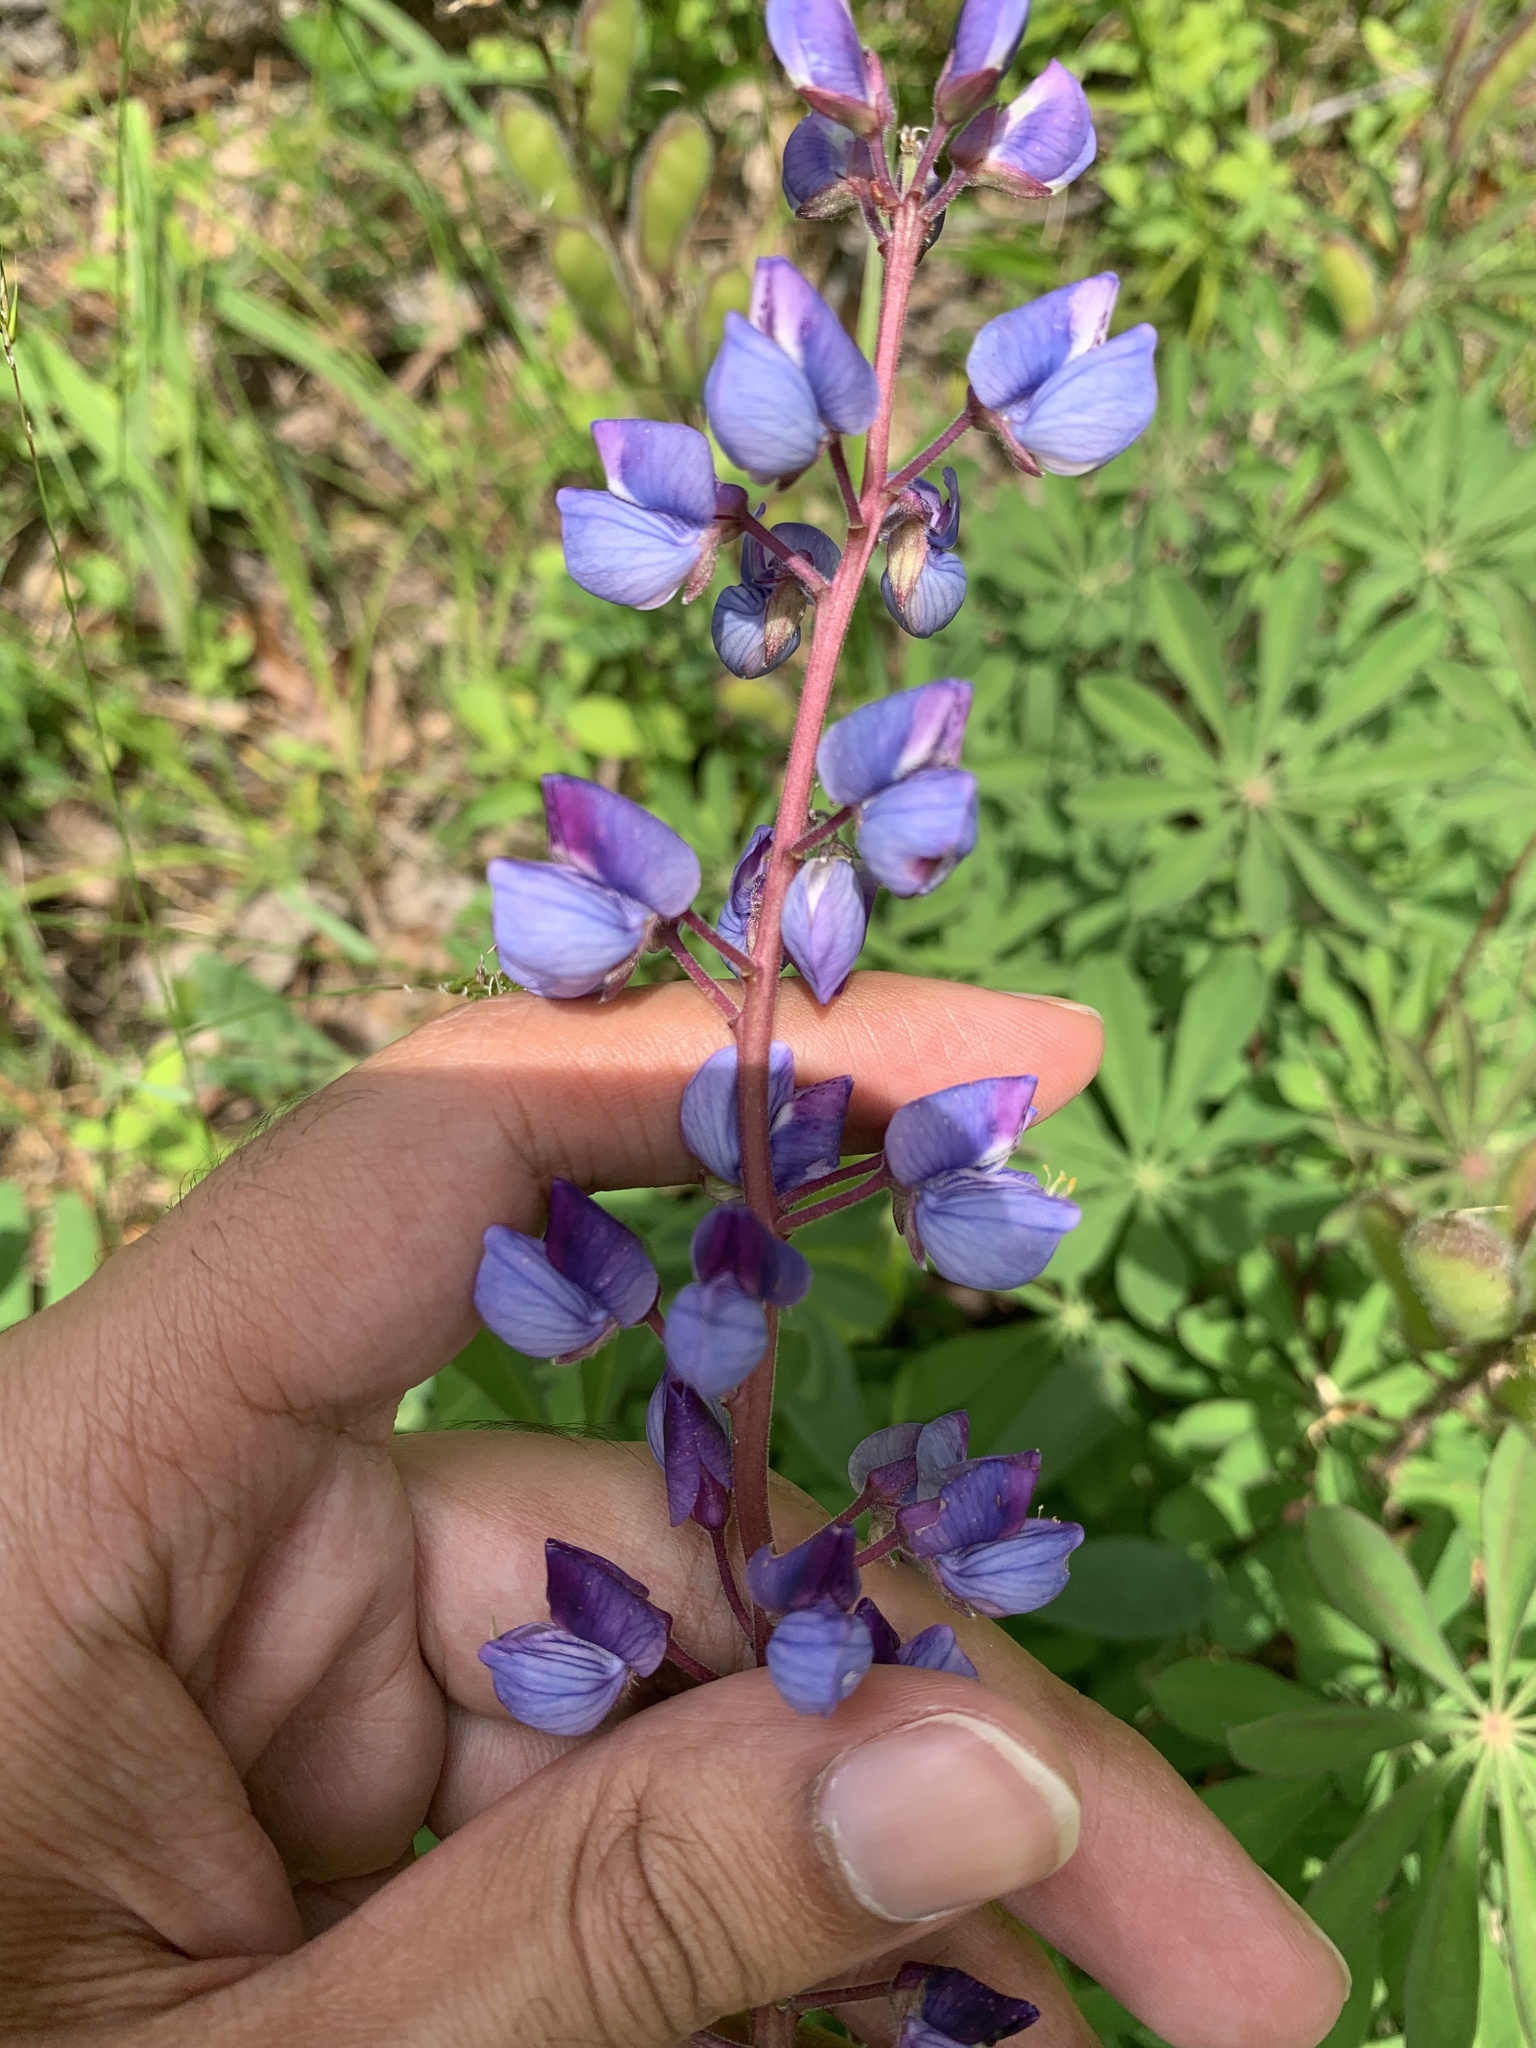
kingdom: Plantae
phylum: Tracheophyta
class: Magnoliopsida
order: Fabales
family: Fabaceae
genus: Lupinus
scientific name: Lupinus perennis
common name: Sundial lupine
